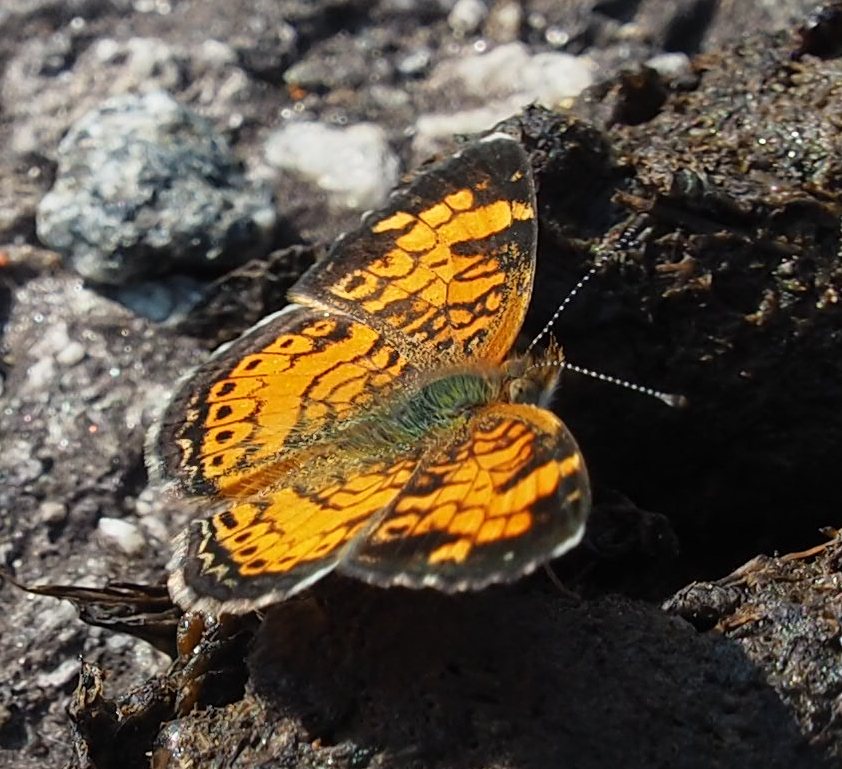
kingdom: Animalia
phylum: Arthropoda
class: Insecta
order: Lepidoptera
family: Nymphalidae
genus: Phyciodes
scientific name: Phyciodes tharos
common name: Pearl crescent
